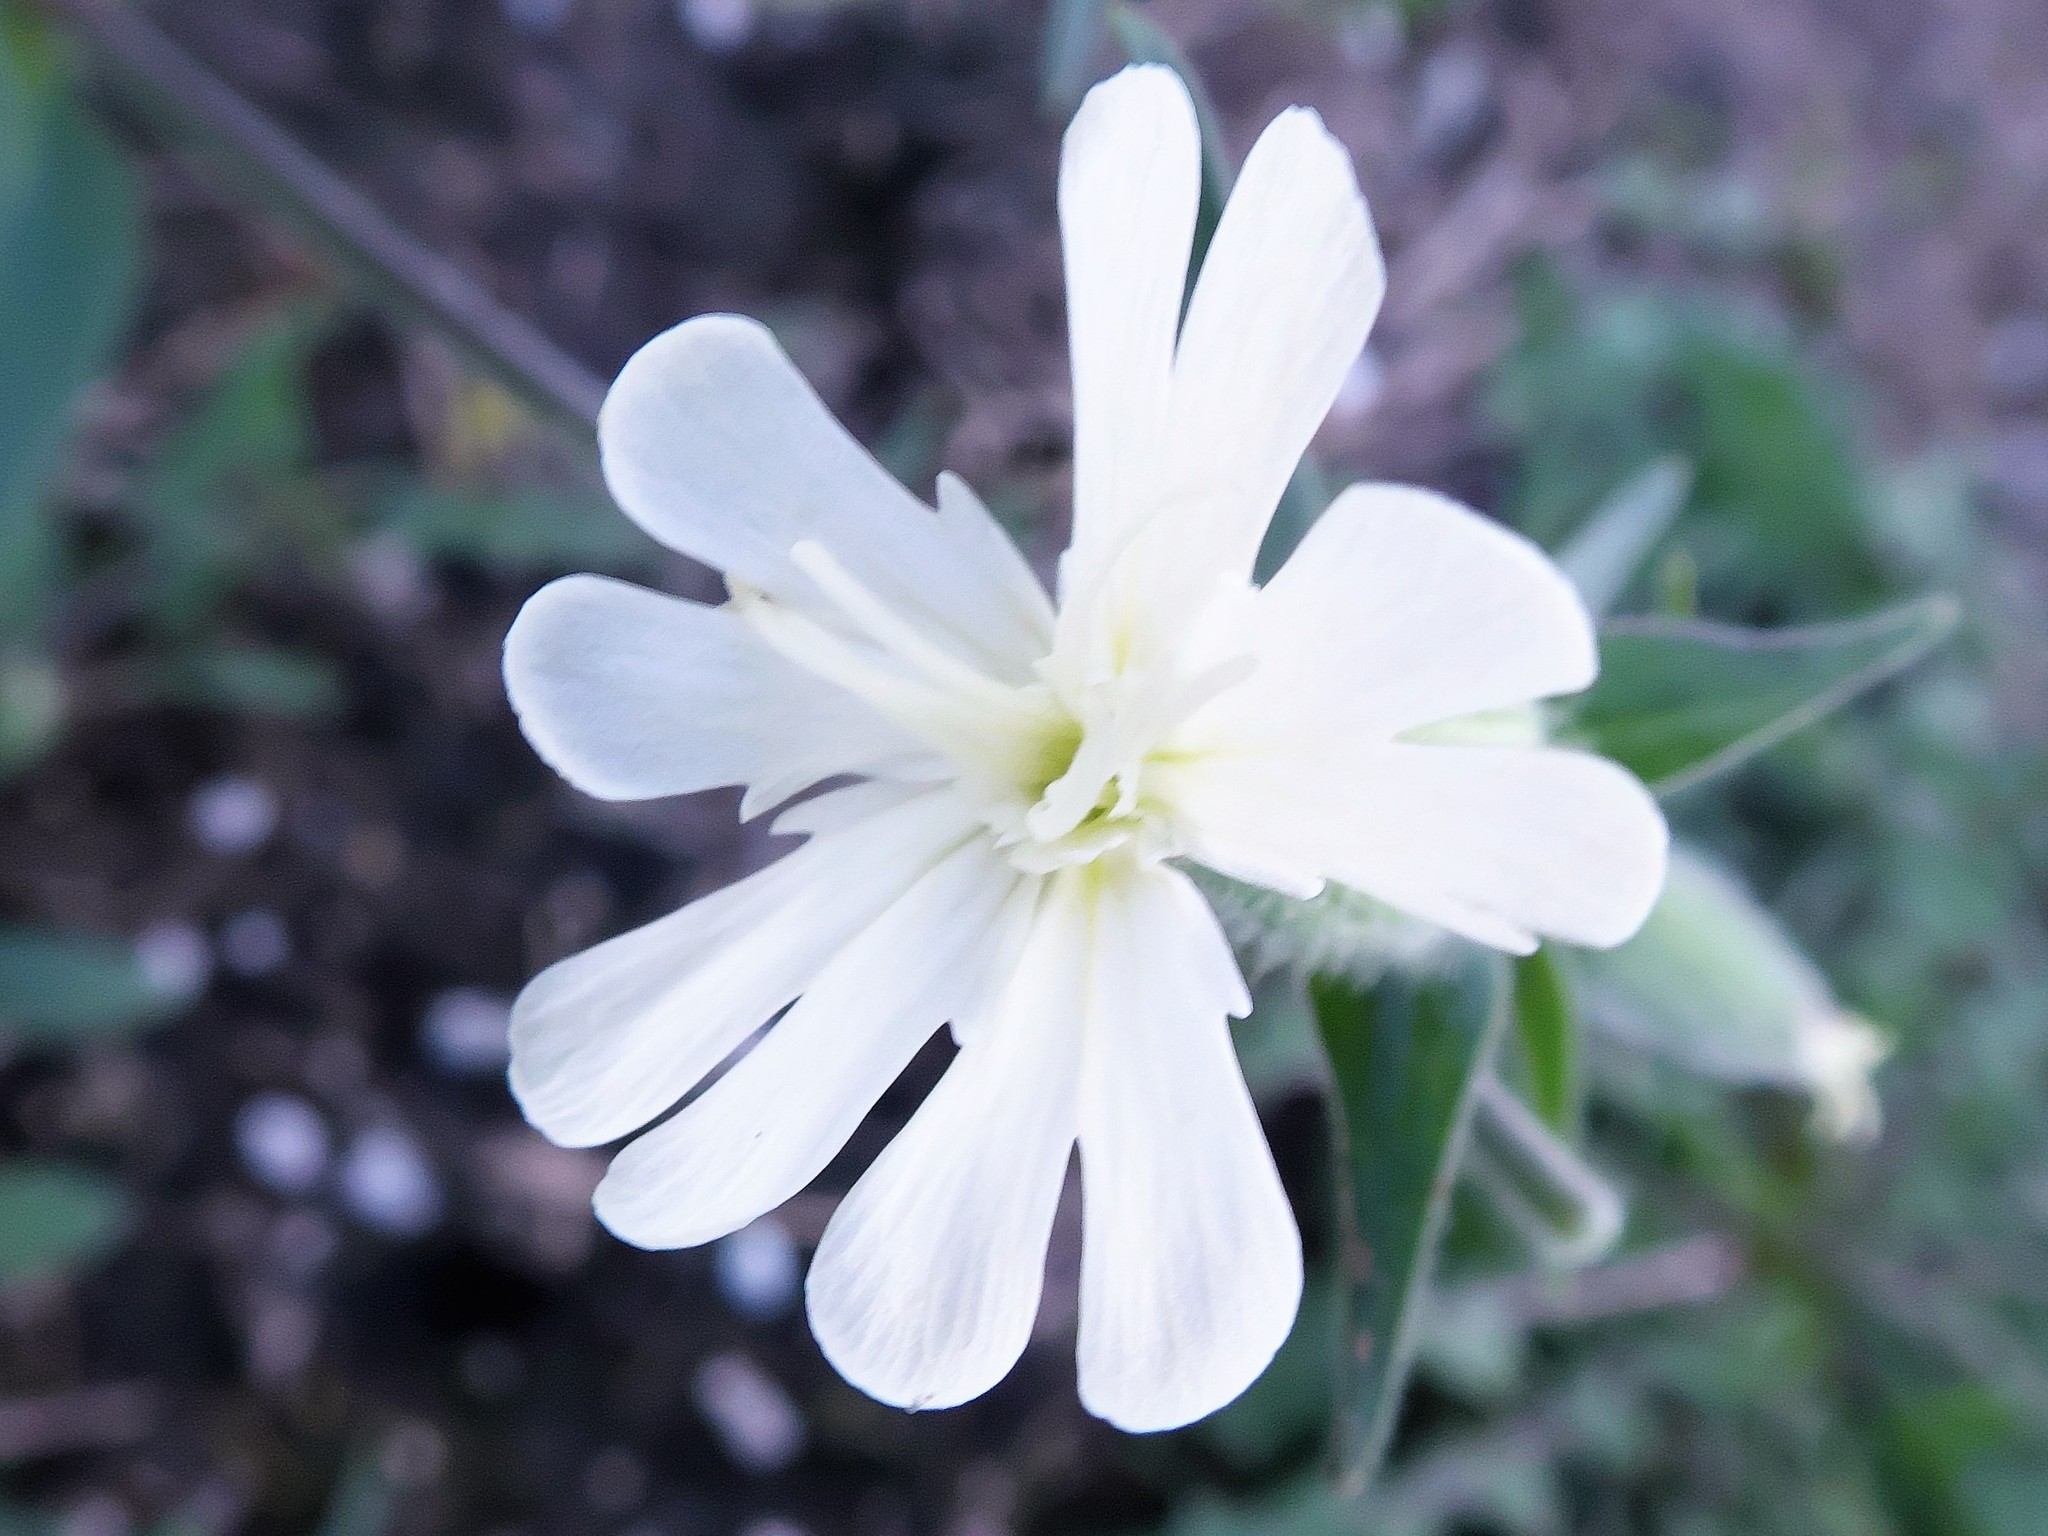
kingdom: Plantae
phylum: Tracheophyta
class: Magnoliopsida
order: Caryophyllales
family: Caryophyllaceae
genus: Silene
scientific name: Silene latifolia
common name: White campion
